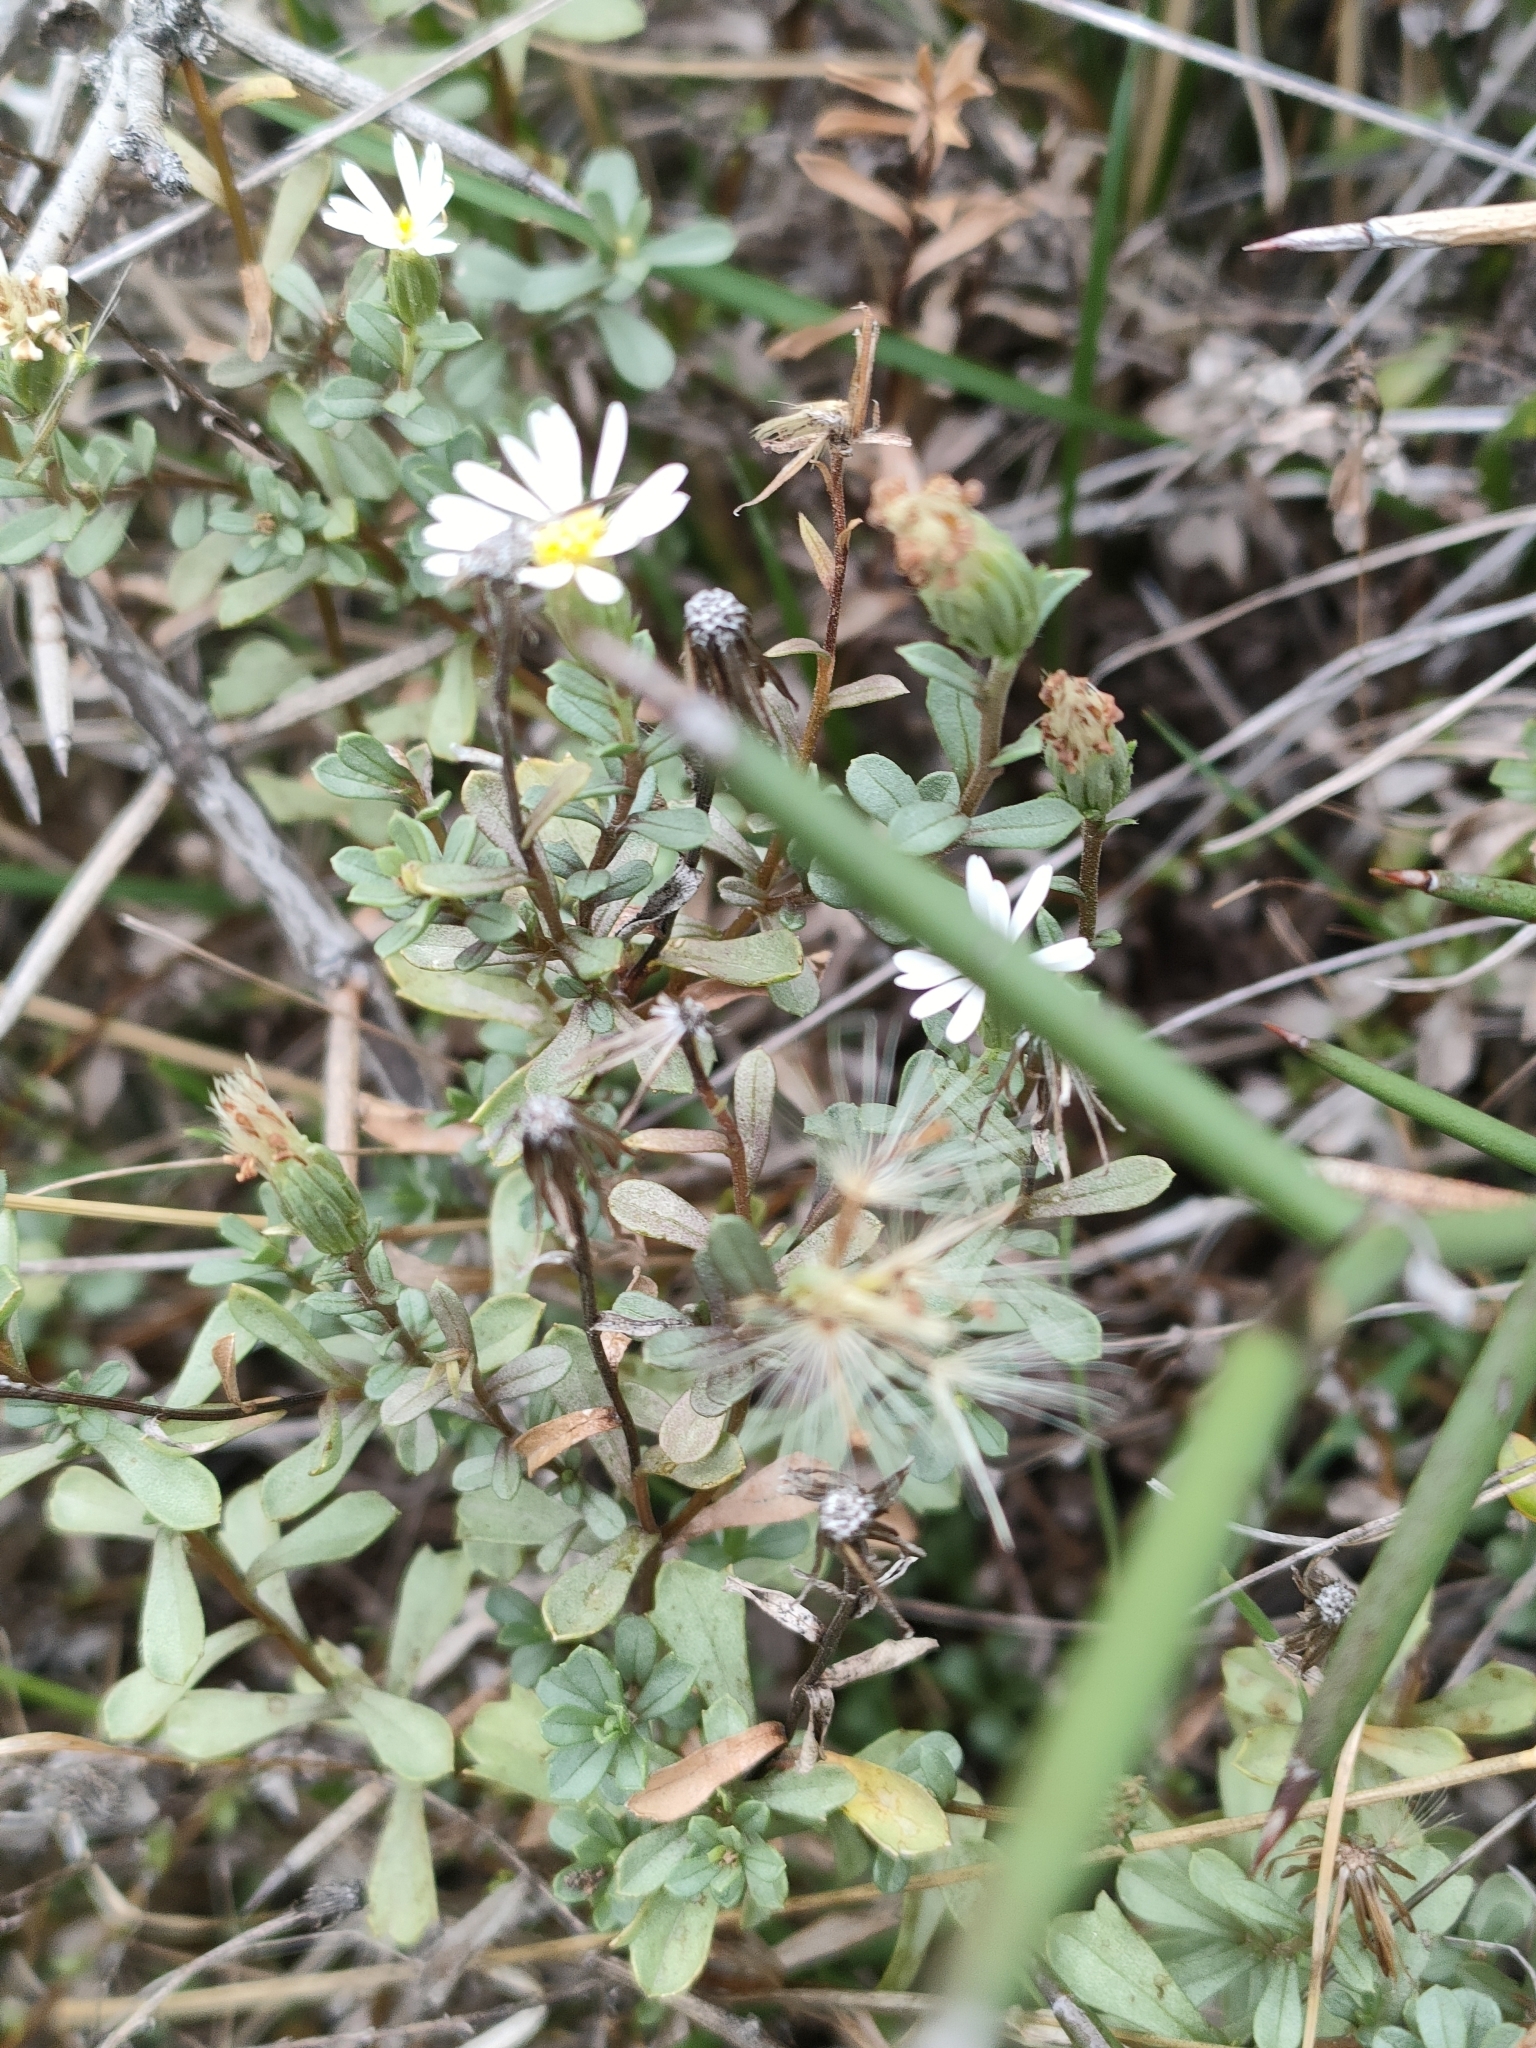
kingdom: Plantae
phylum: Tracheophyta
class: Magnoliopsida
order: Asterales
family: Asteraceae
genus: Vittadinia
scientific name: Vittadinia australis
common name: White fuzzweed
